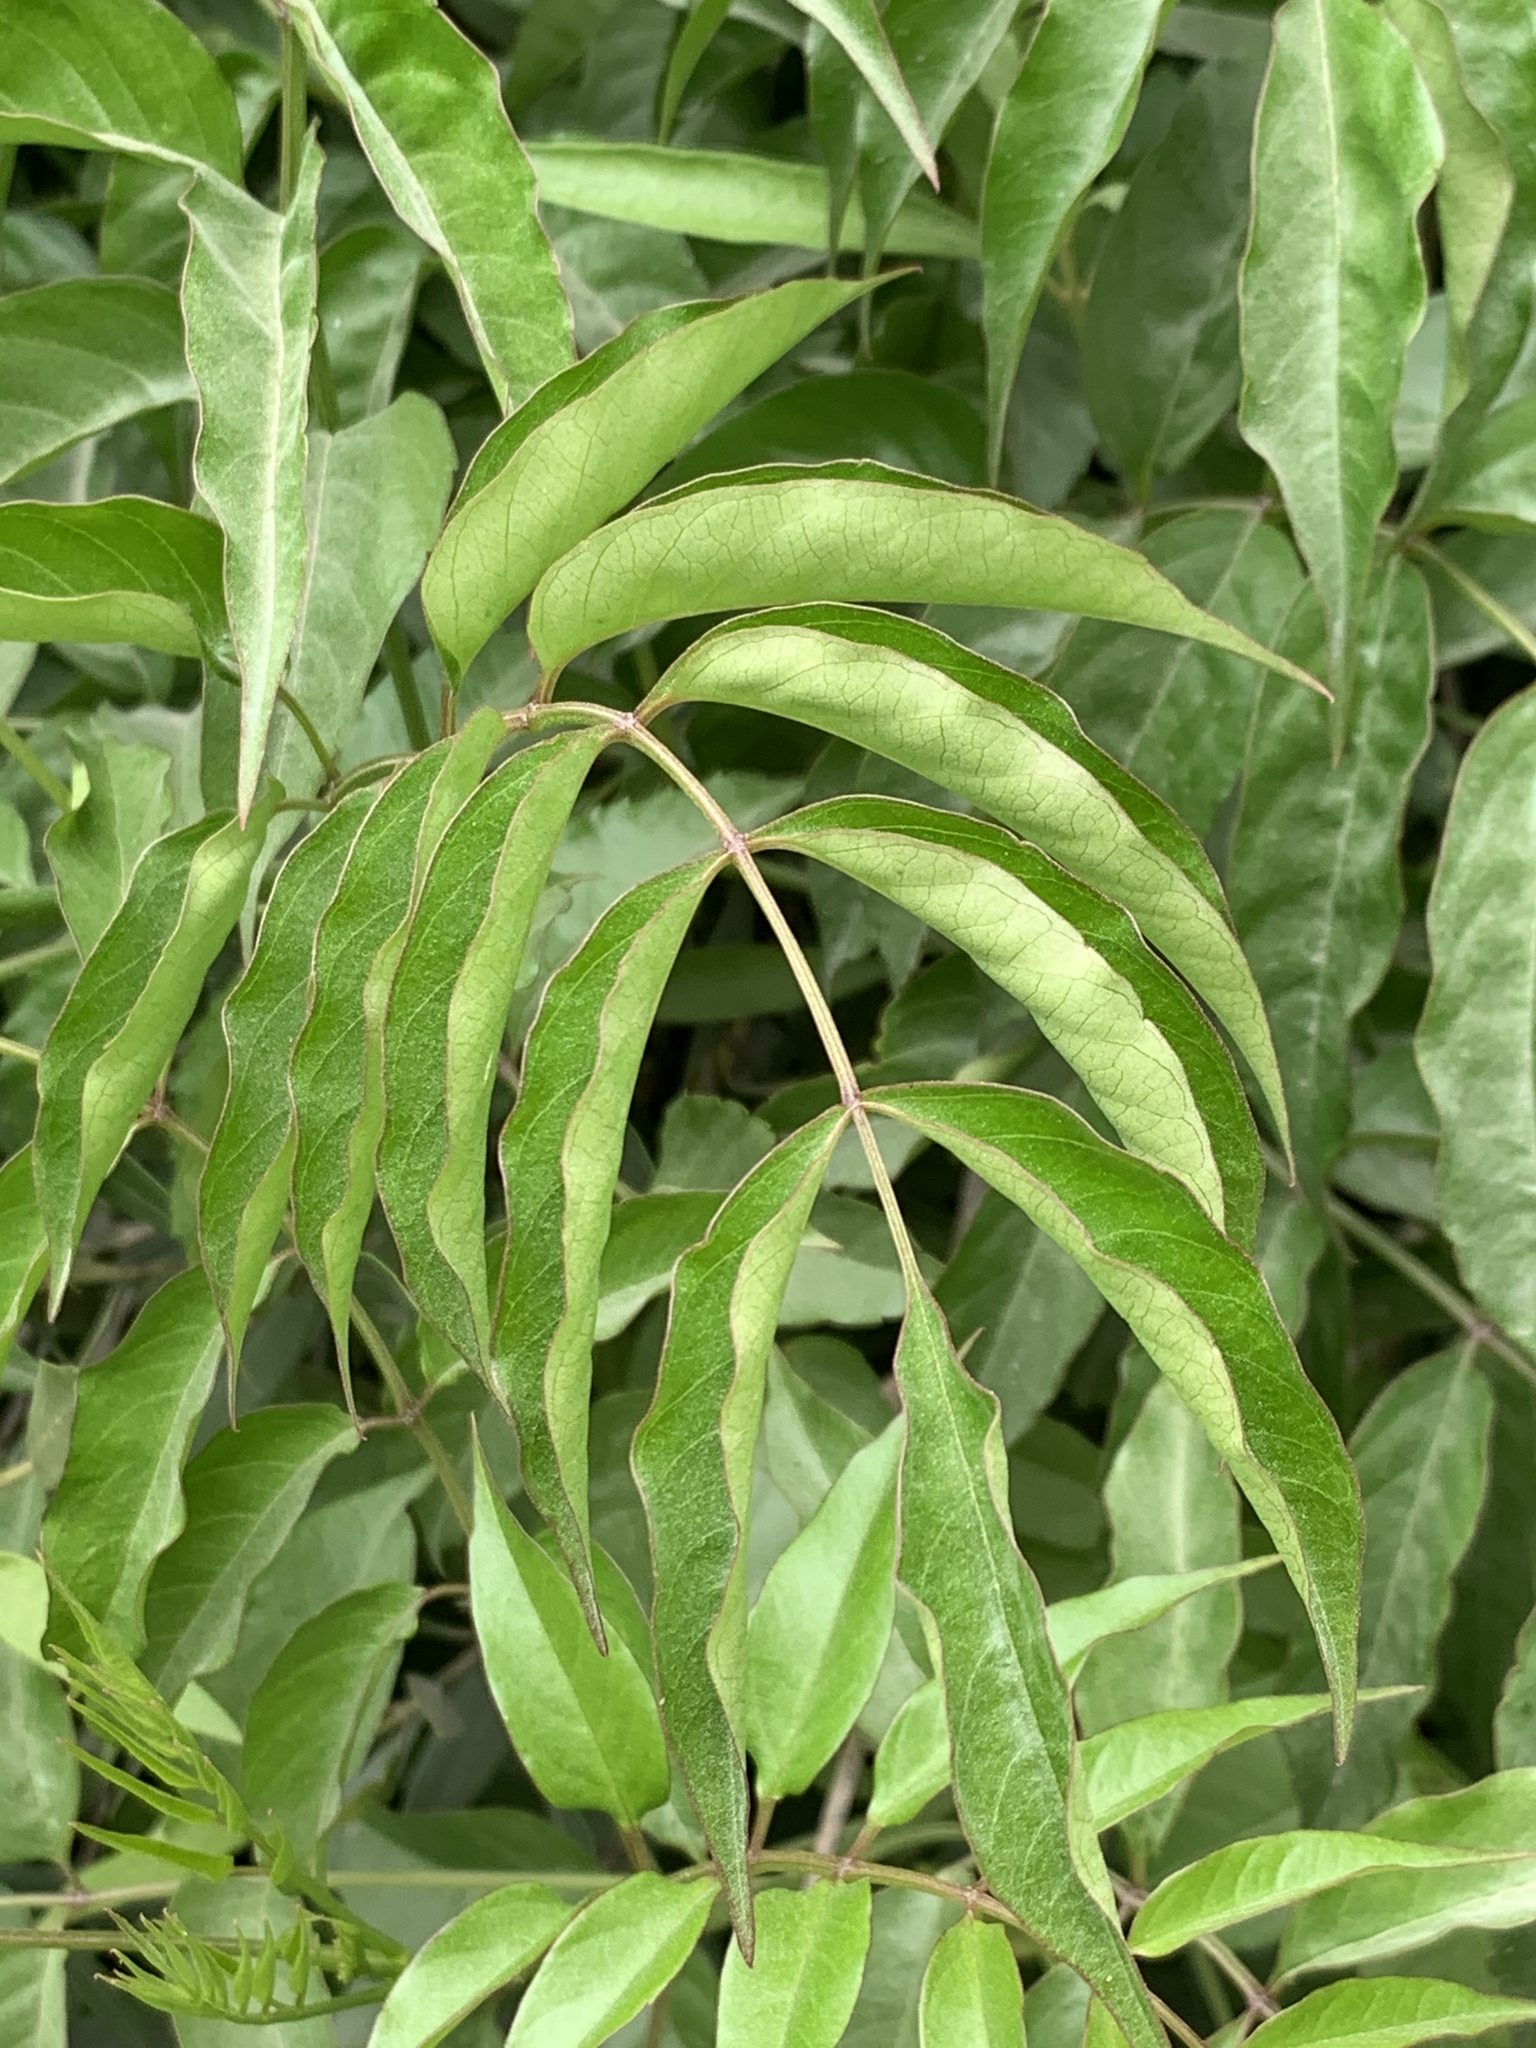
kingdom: Plantae
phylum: Tracheophyta
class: Magnoliopsida
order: Lamiales
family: Bignoniaceae
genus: Podranea
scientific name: Podranea ricasoliana
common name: Zimbabwe creeper
